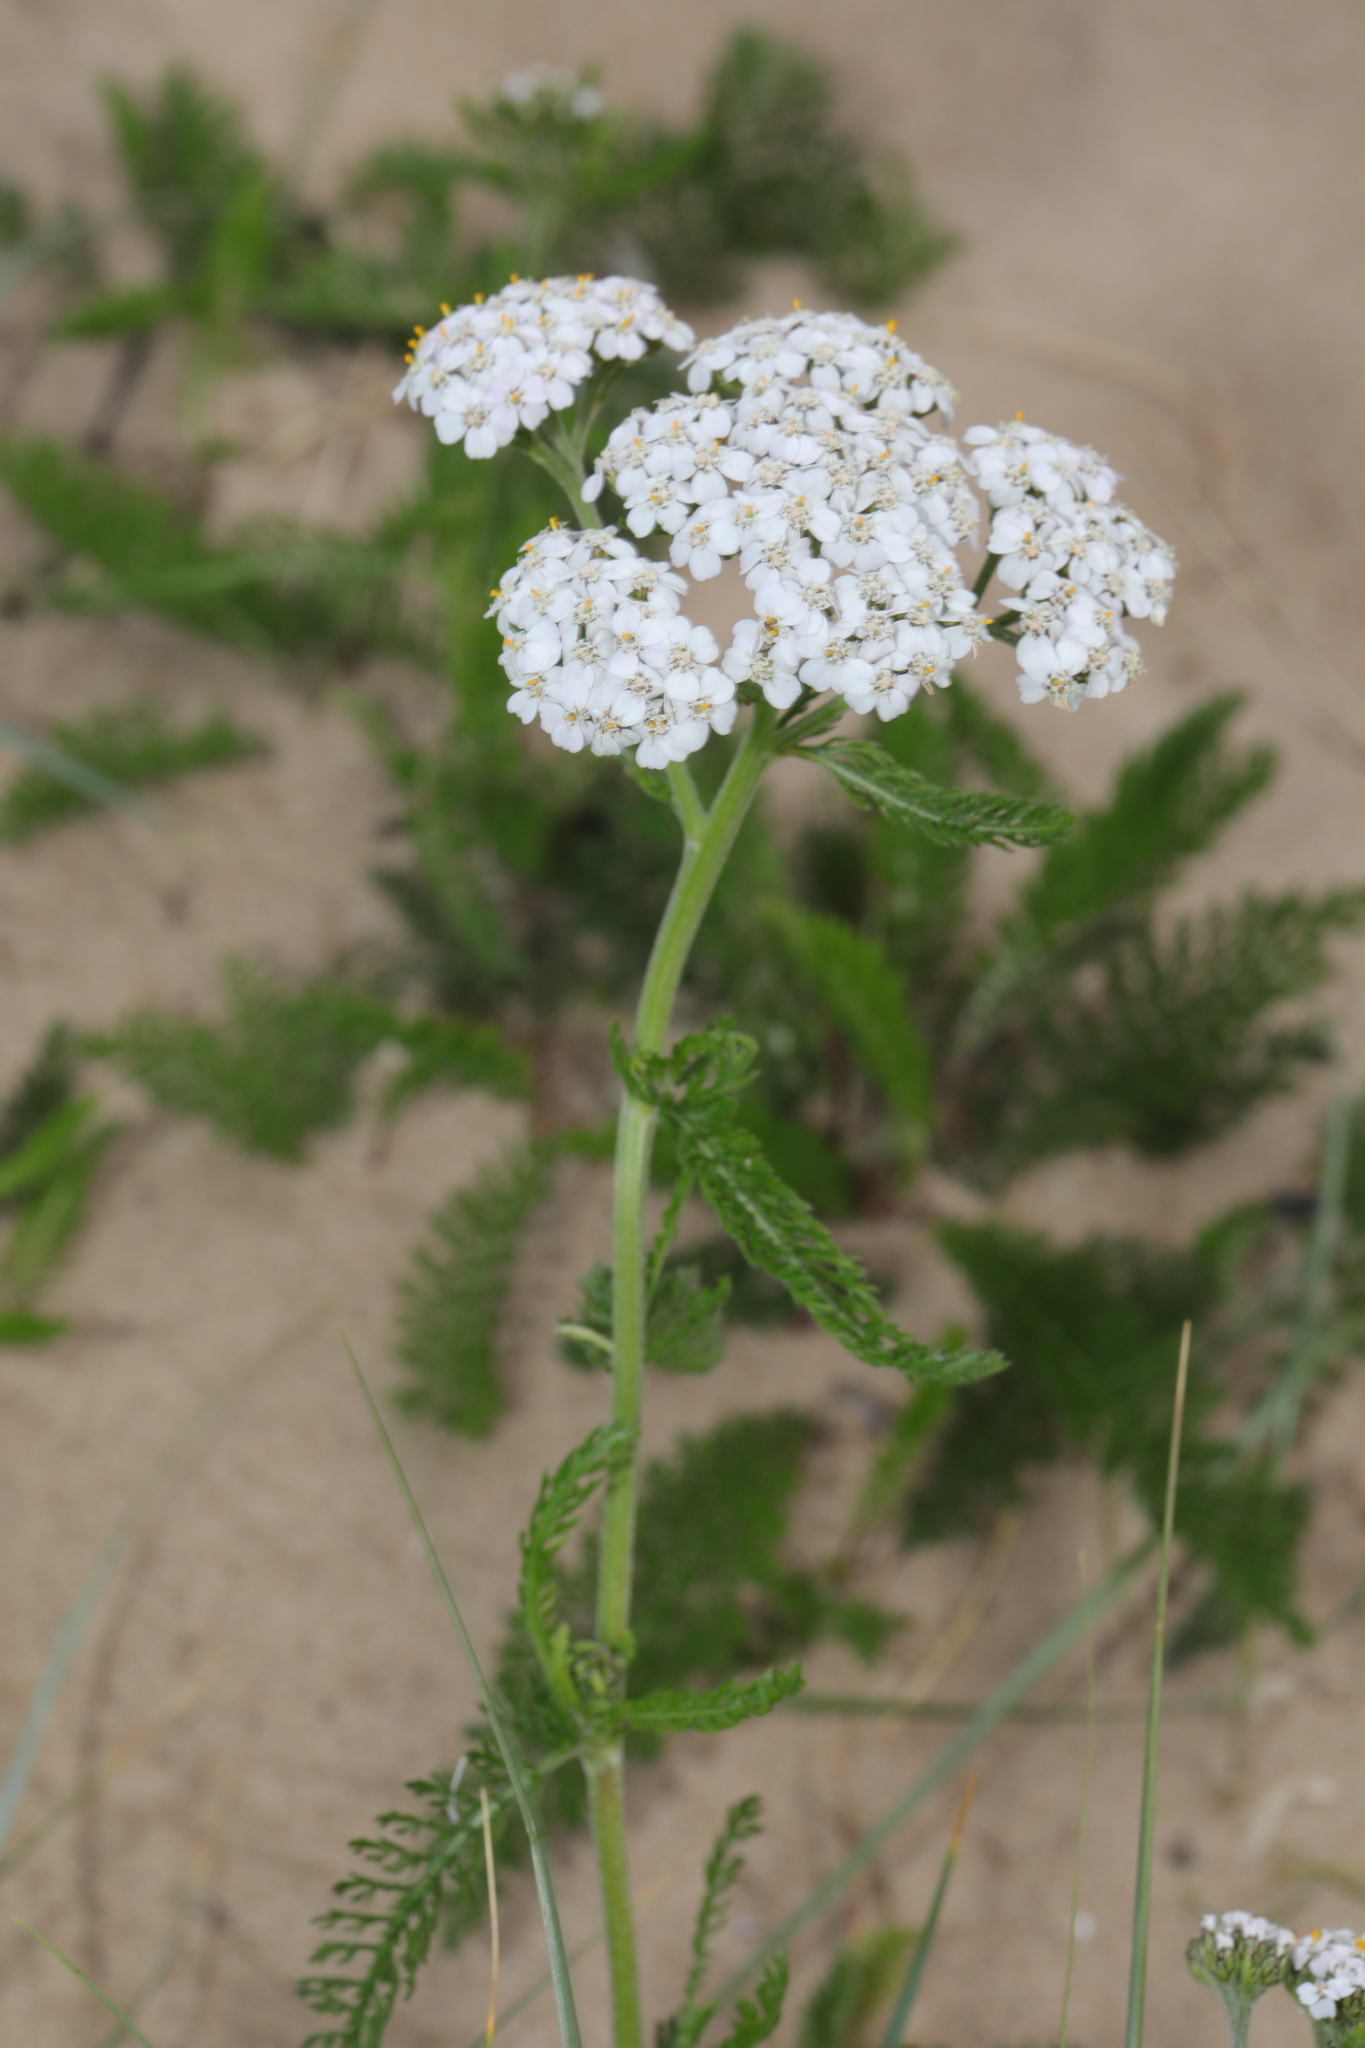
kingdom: Plantae
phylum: Tracheophyta
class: Magnoliopsida
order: Asterales
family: Asteraceae
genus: Achillea
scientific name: Achillea millefolium
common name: Yarrow
